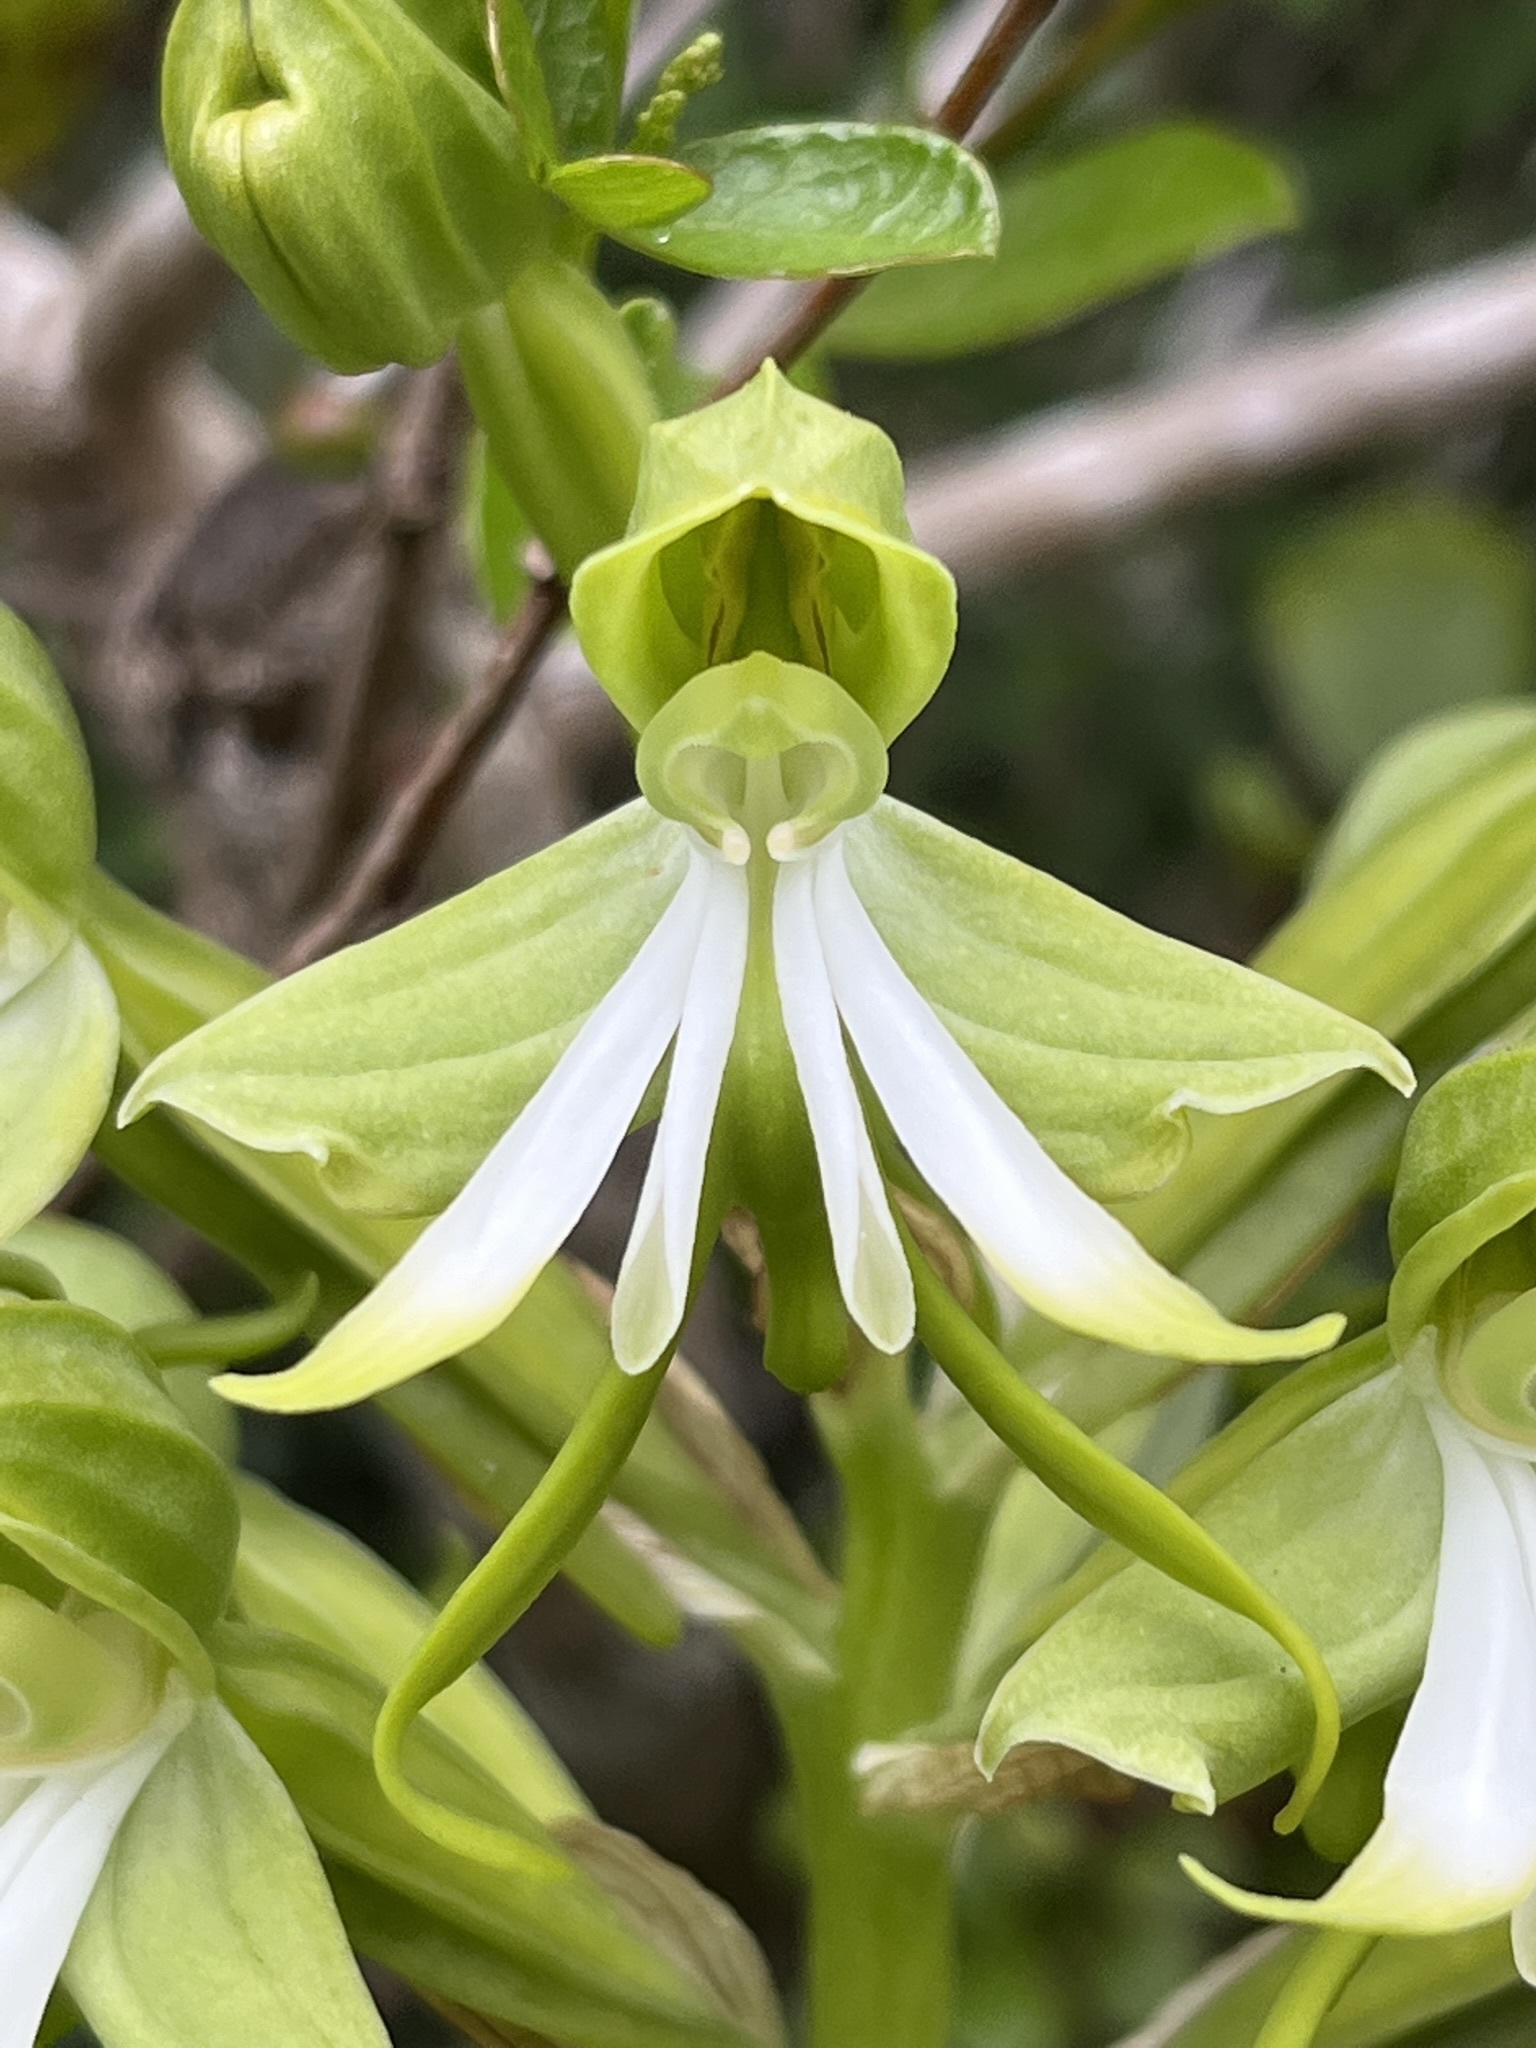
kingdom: Plantae
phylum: Tracheophyta
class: Liliopsida
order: Asparagales
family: Orchidaceae
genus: Bonatea
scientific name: Bonatea speciosa
